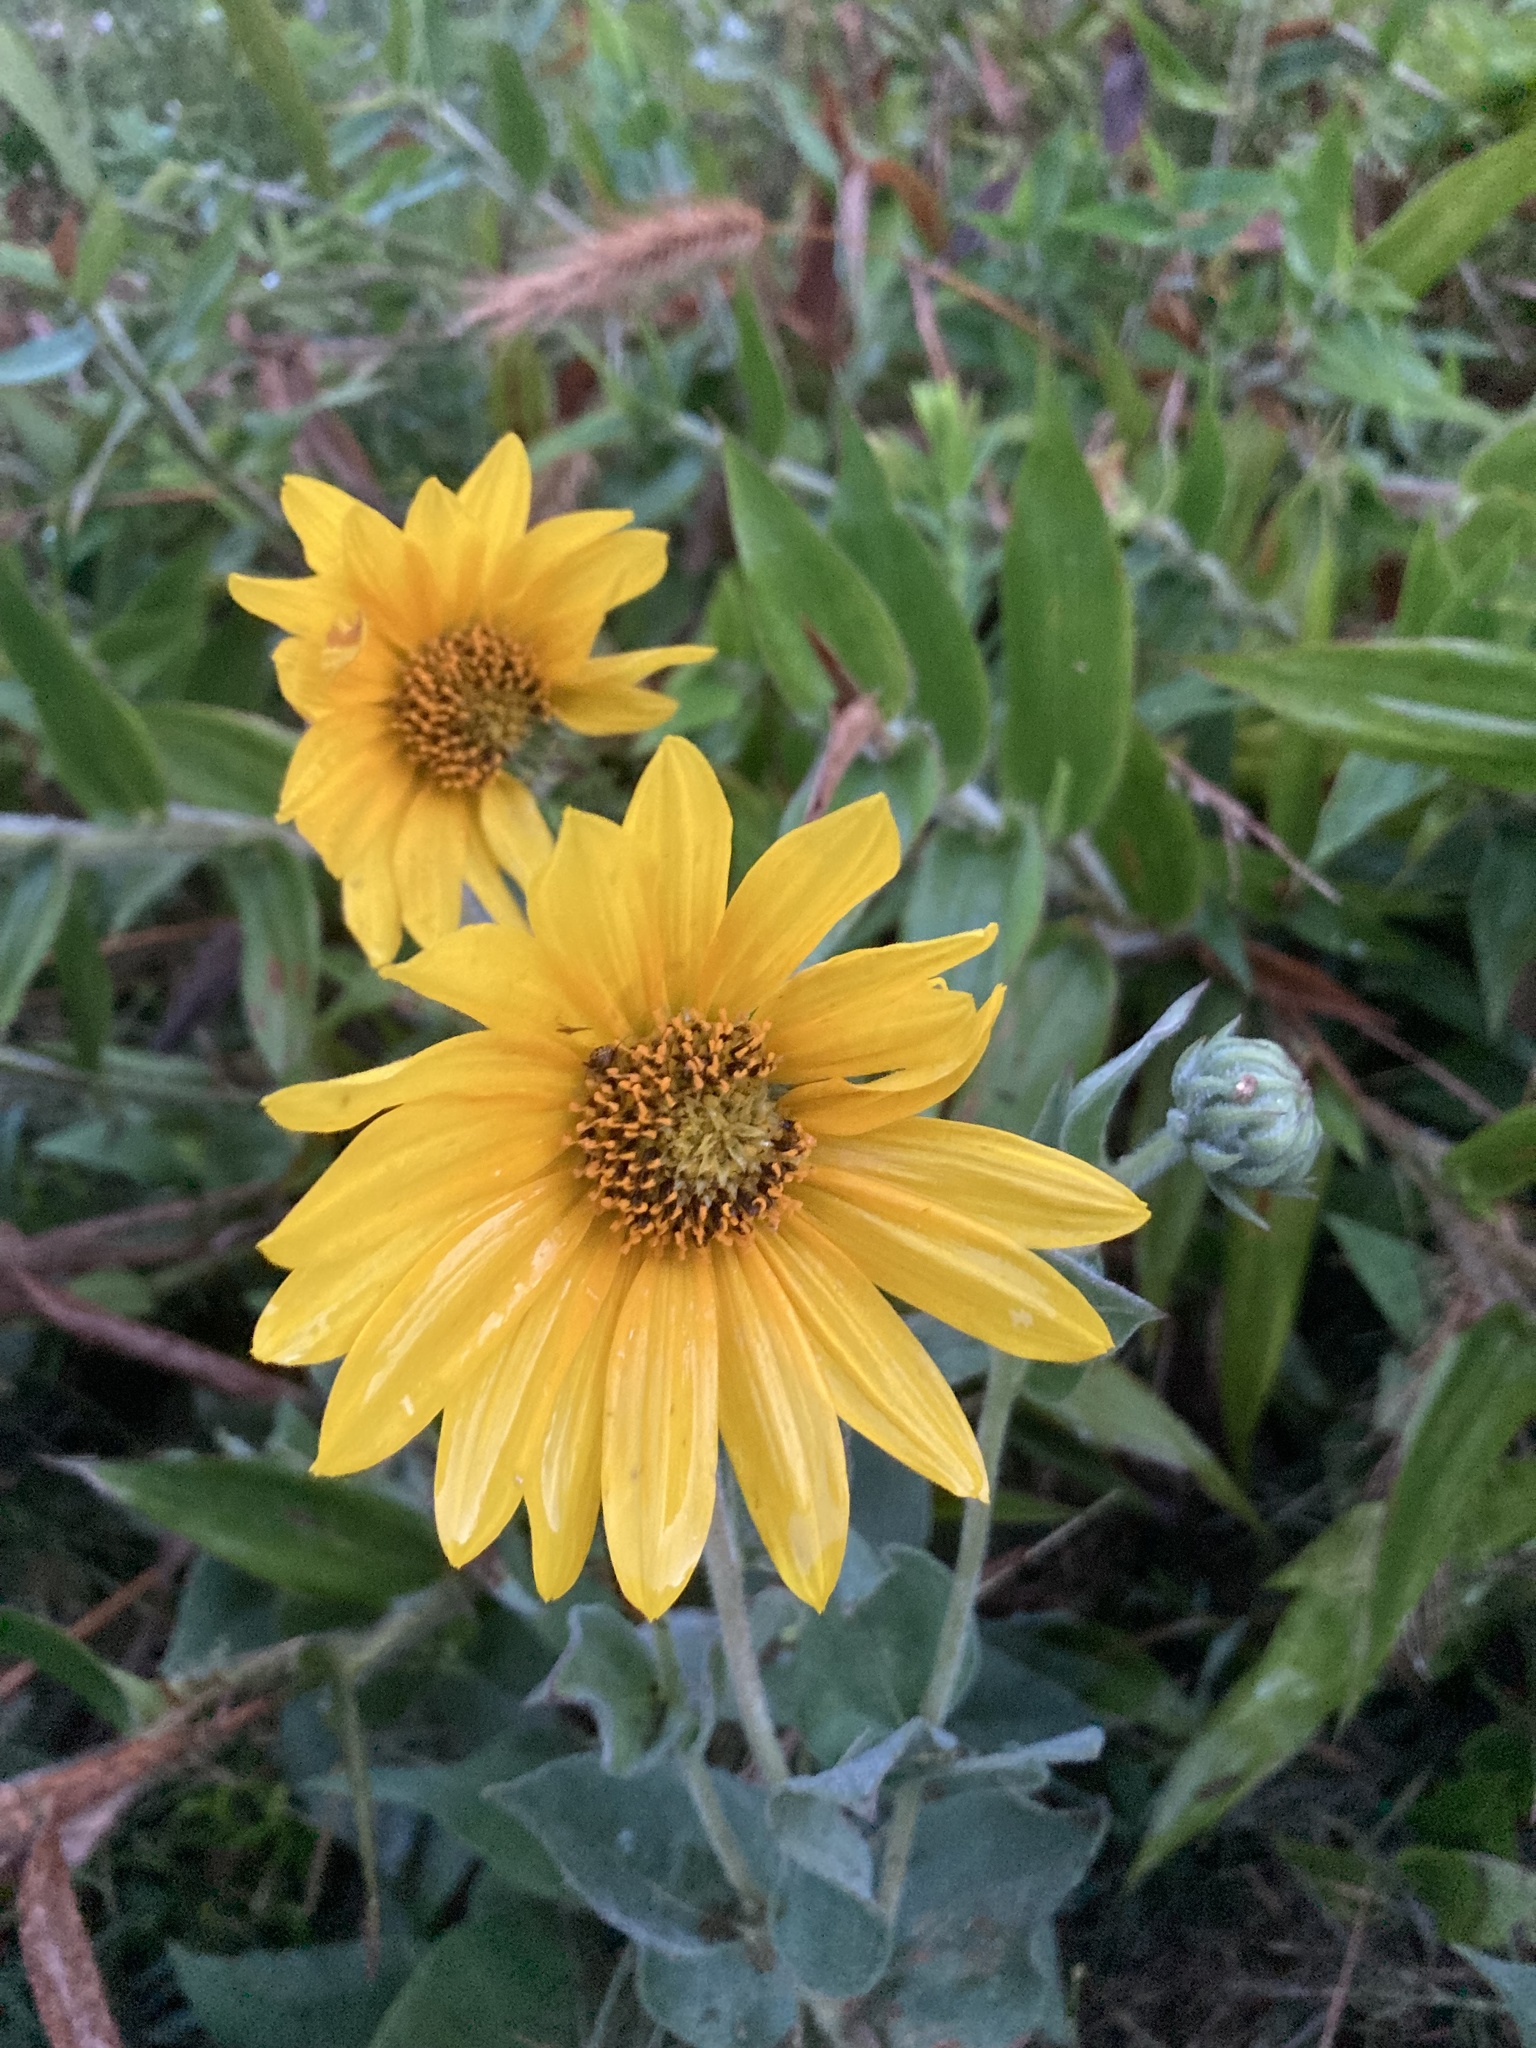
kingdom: Plantae
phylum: Tracheophyta
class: Magnoliopsida
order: Asterales
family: Asteraceae
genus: Helianthus
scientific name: Helianthus mollis
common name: Ashy sunflower
